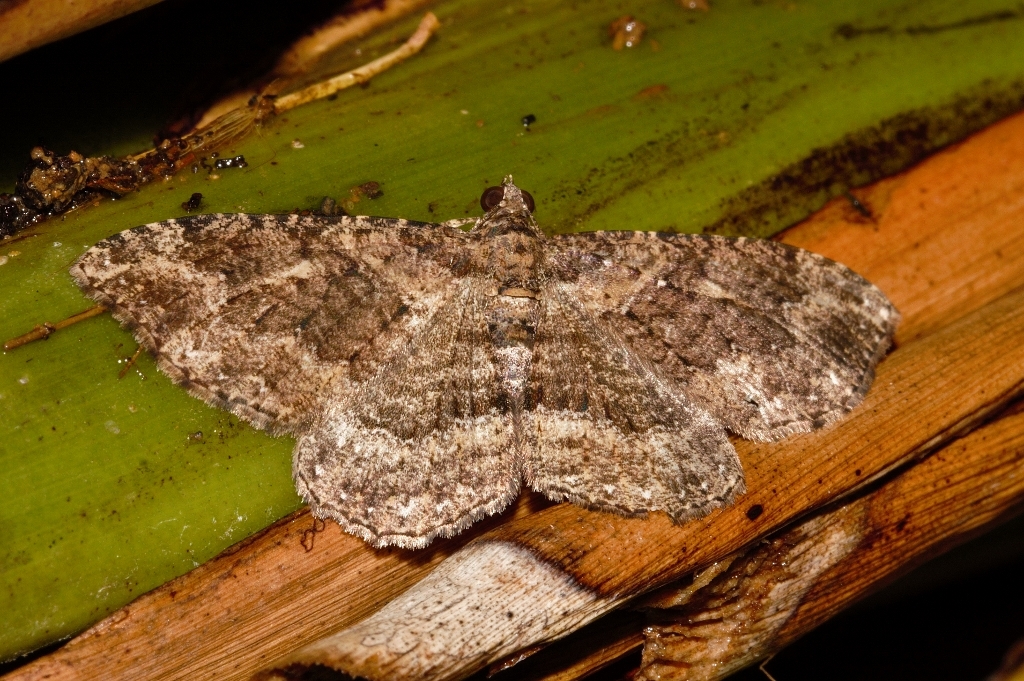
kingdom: Animalia
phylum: Arthropoda
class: Insecta
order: Lepidoptera
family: Geometridae
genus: Disclisioprocta
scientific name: Disclisioprocta natalata
